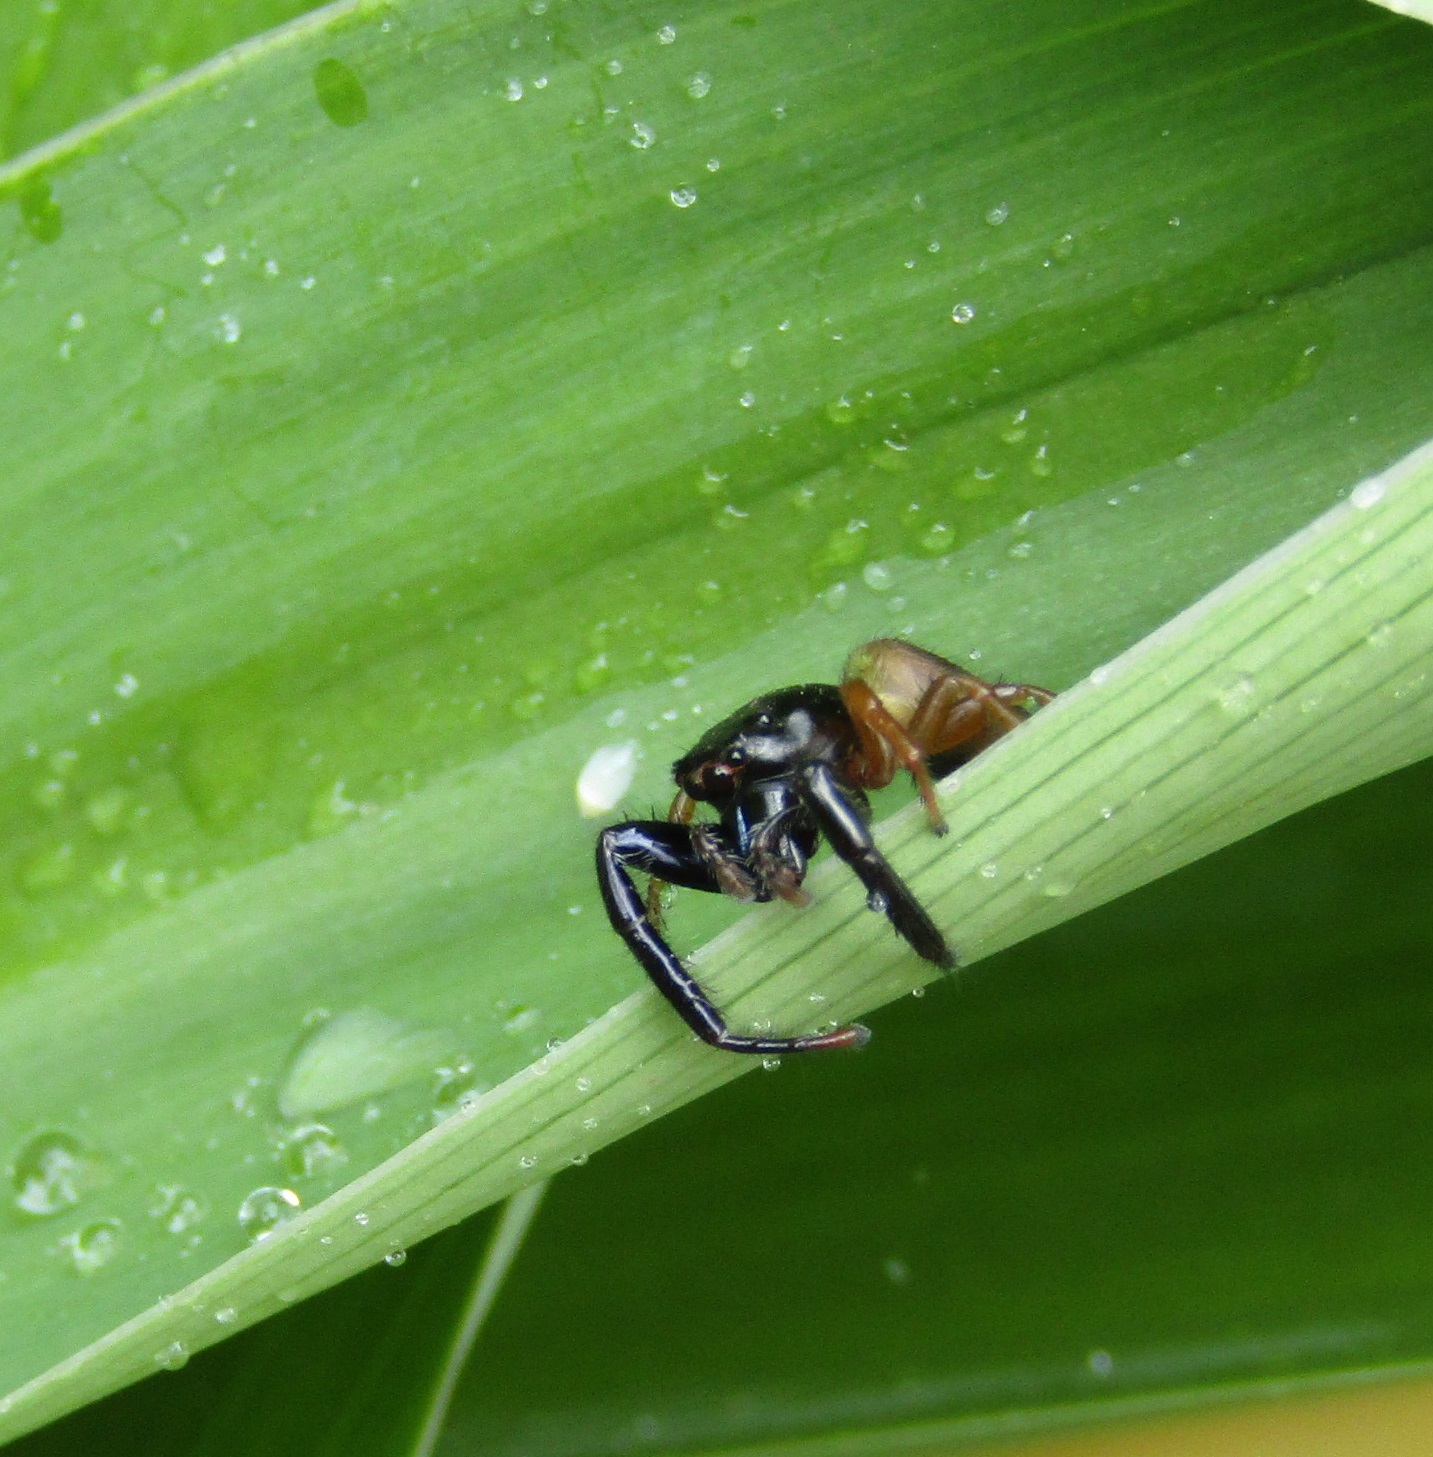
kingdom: Animalia
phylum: Arthropoda
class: Arachnida
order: Araneae
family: Salticidae
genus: Trite
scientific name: Trite planiceps
